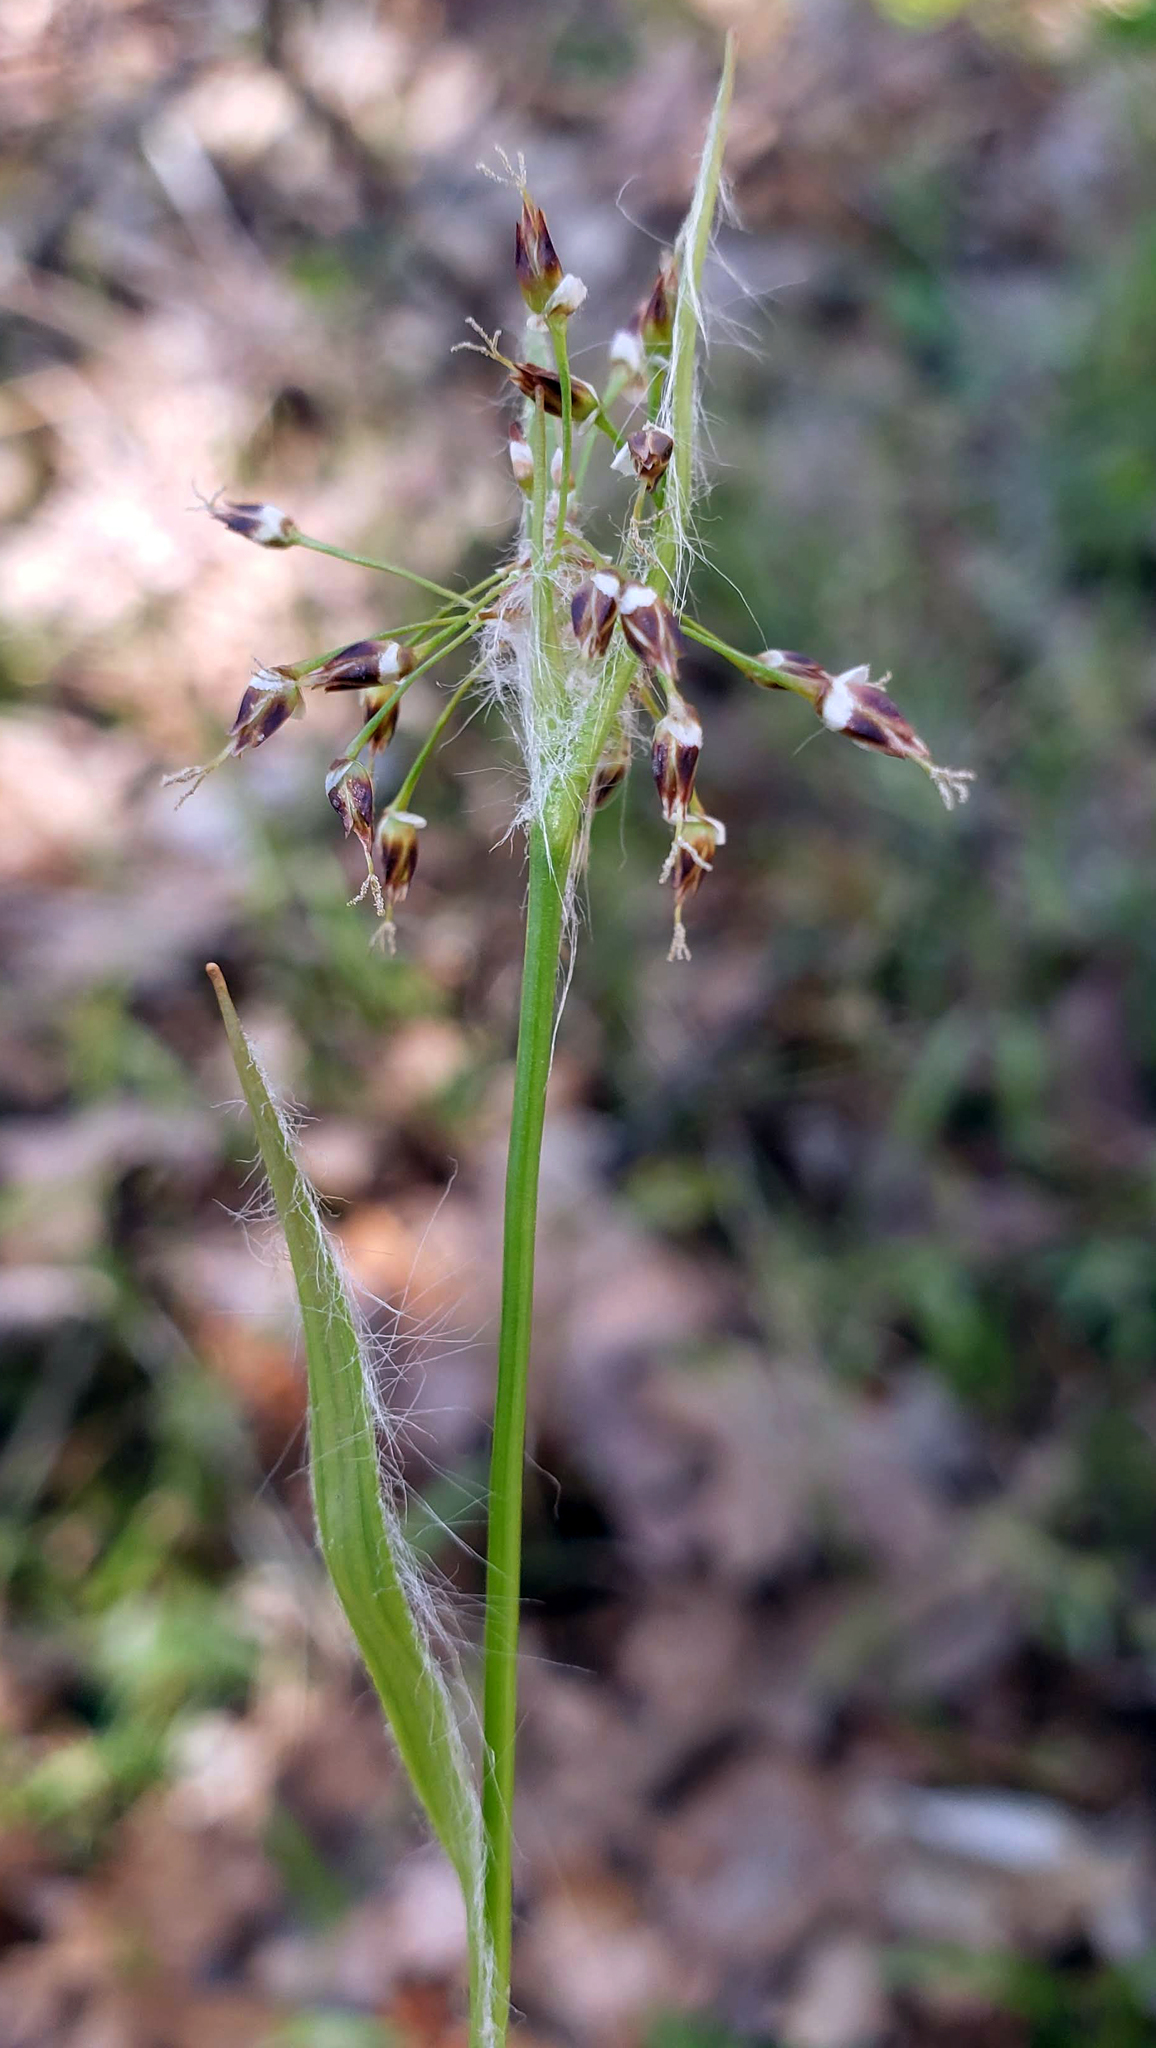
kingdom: Plantae
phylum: Tracheophyta
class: Liliopsida
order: Poales
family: Juncaceae
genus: Luzula
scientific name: Luzula acuminata
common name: Hairy woodrush
